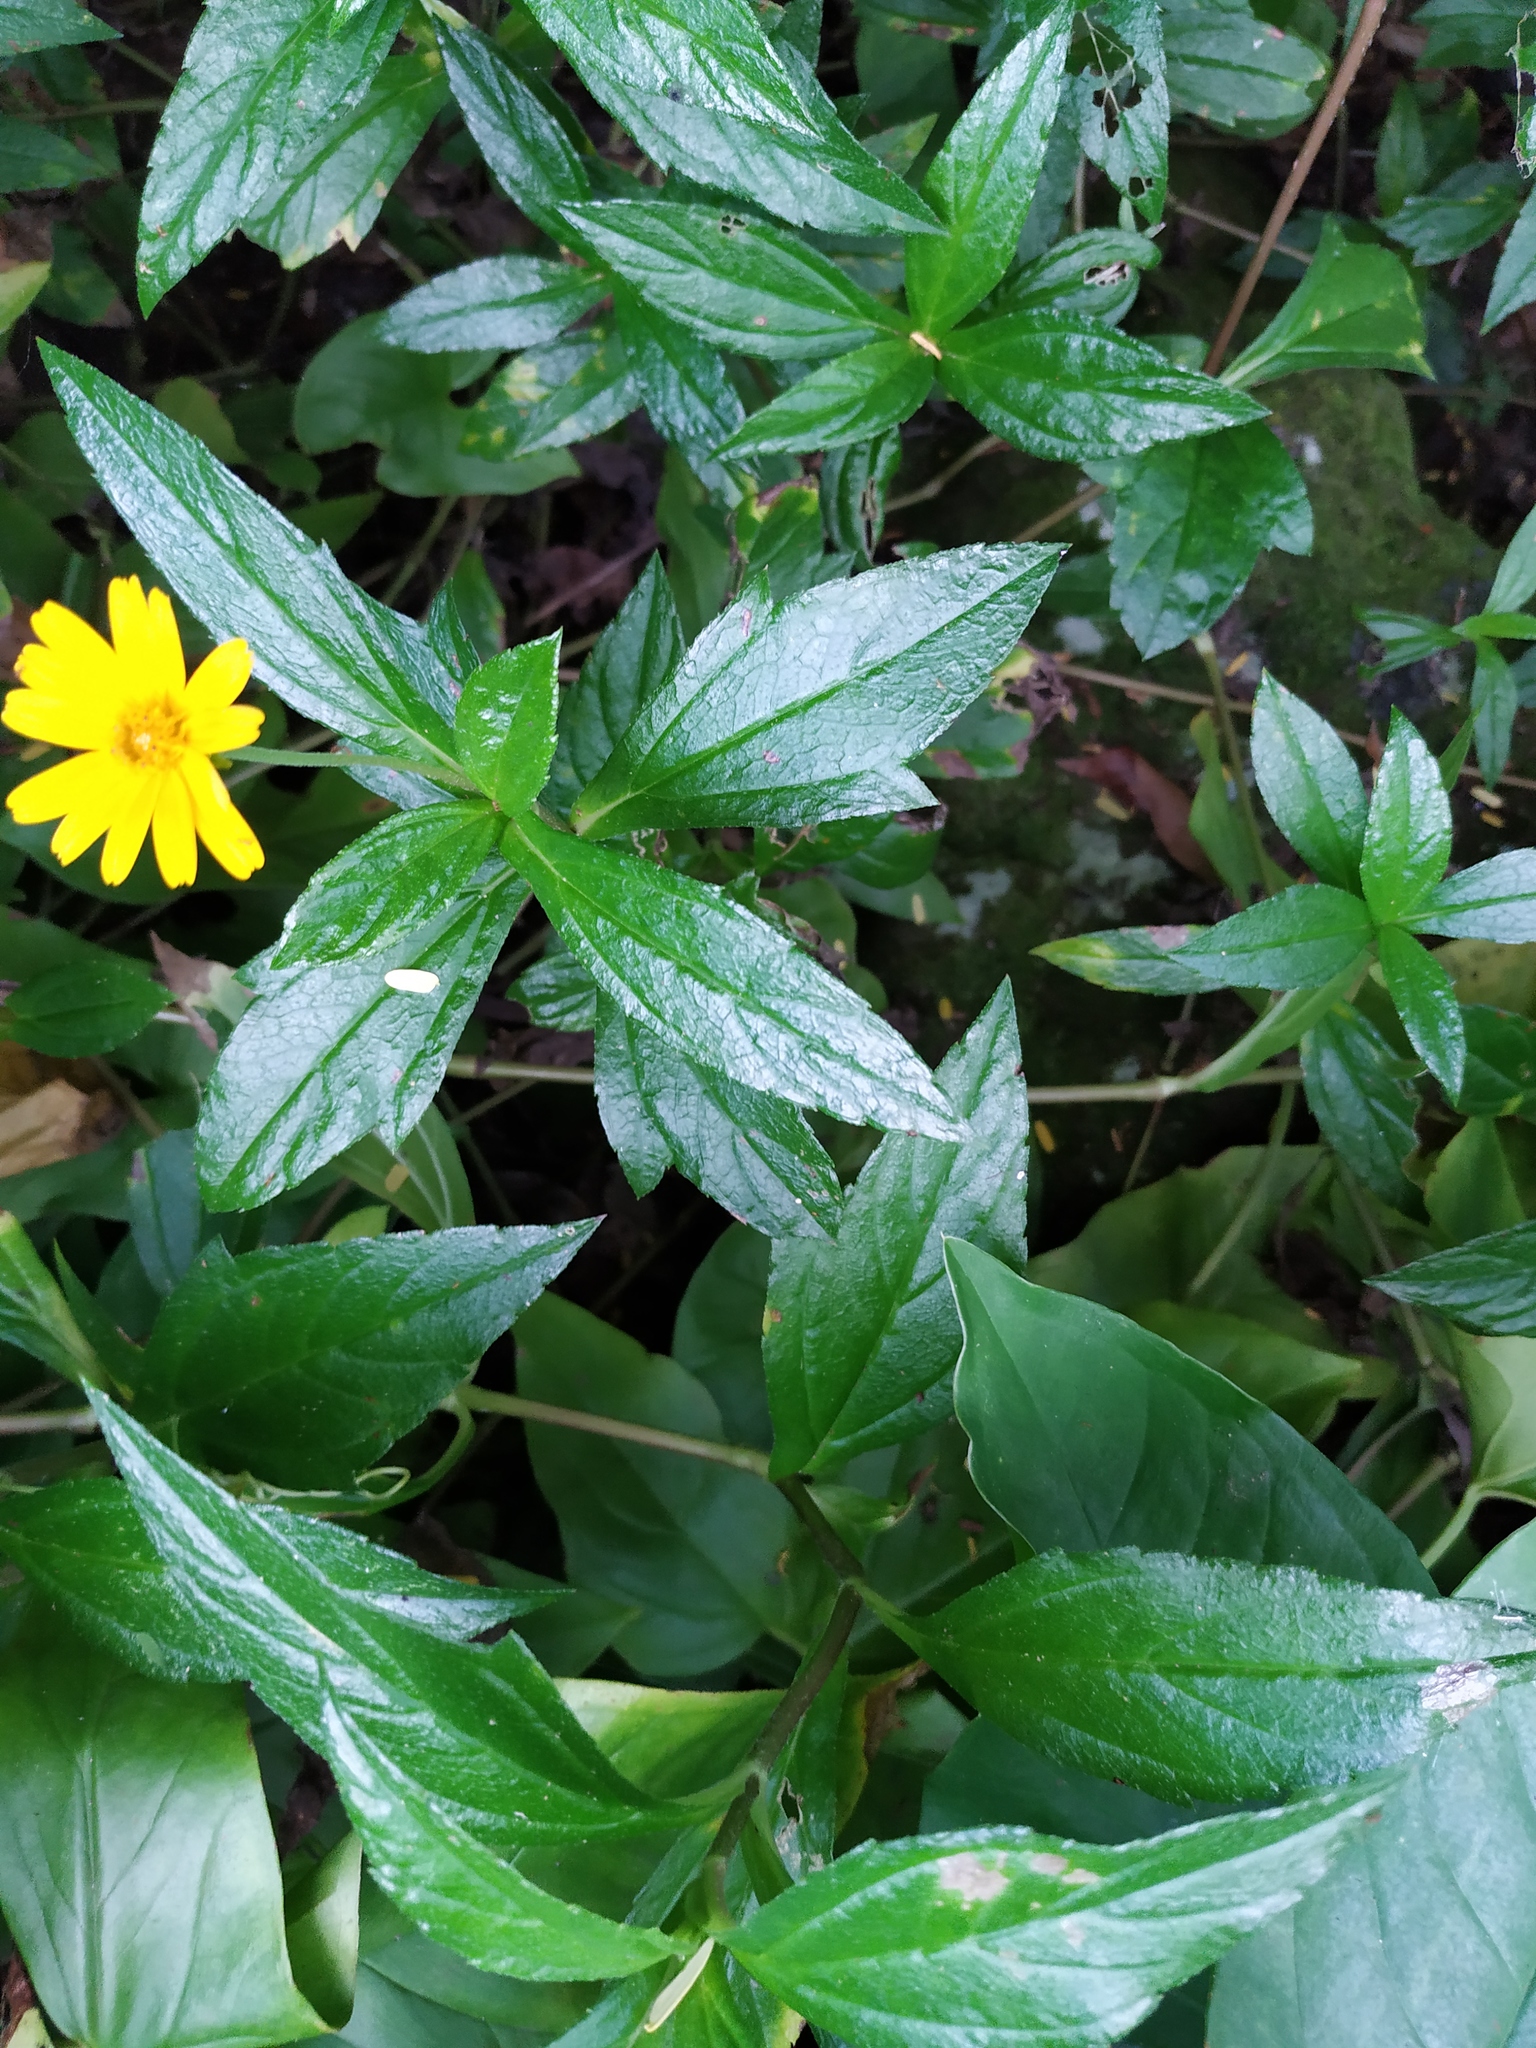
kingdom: Plantae
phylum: Tracheophyta
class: Magnoliopsida
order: Asterales
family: Asteraceae
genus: Sphagneticola
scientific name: Sphagneticola trilobata
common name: Bay biscayne creeping-oxeye
